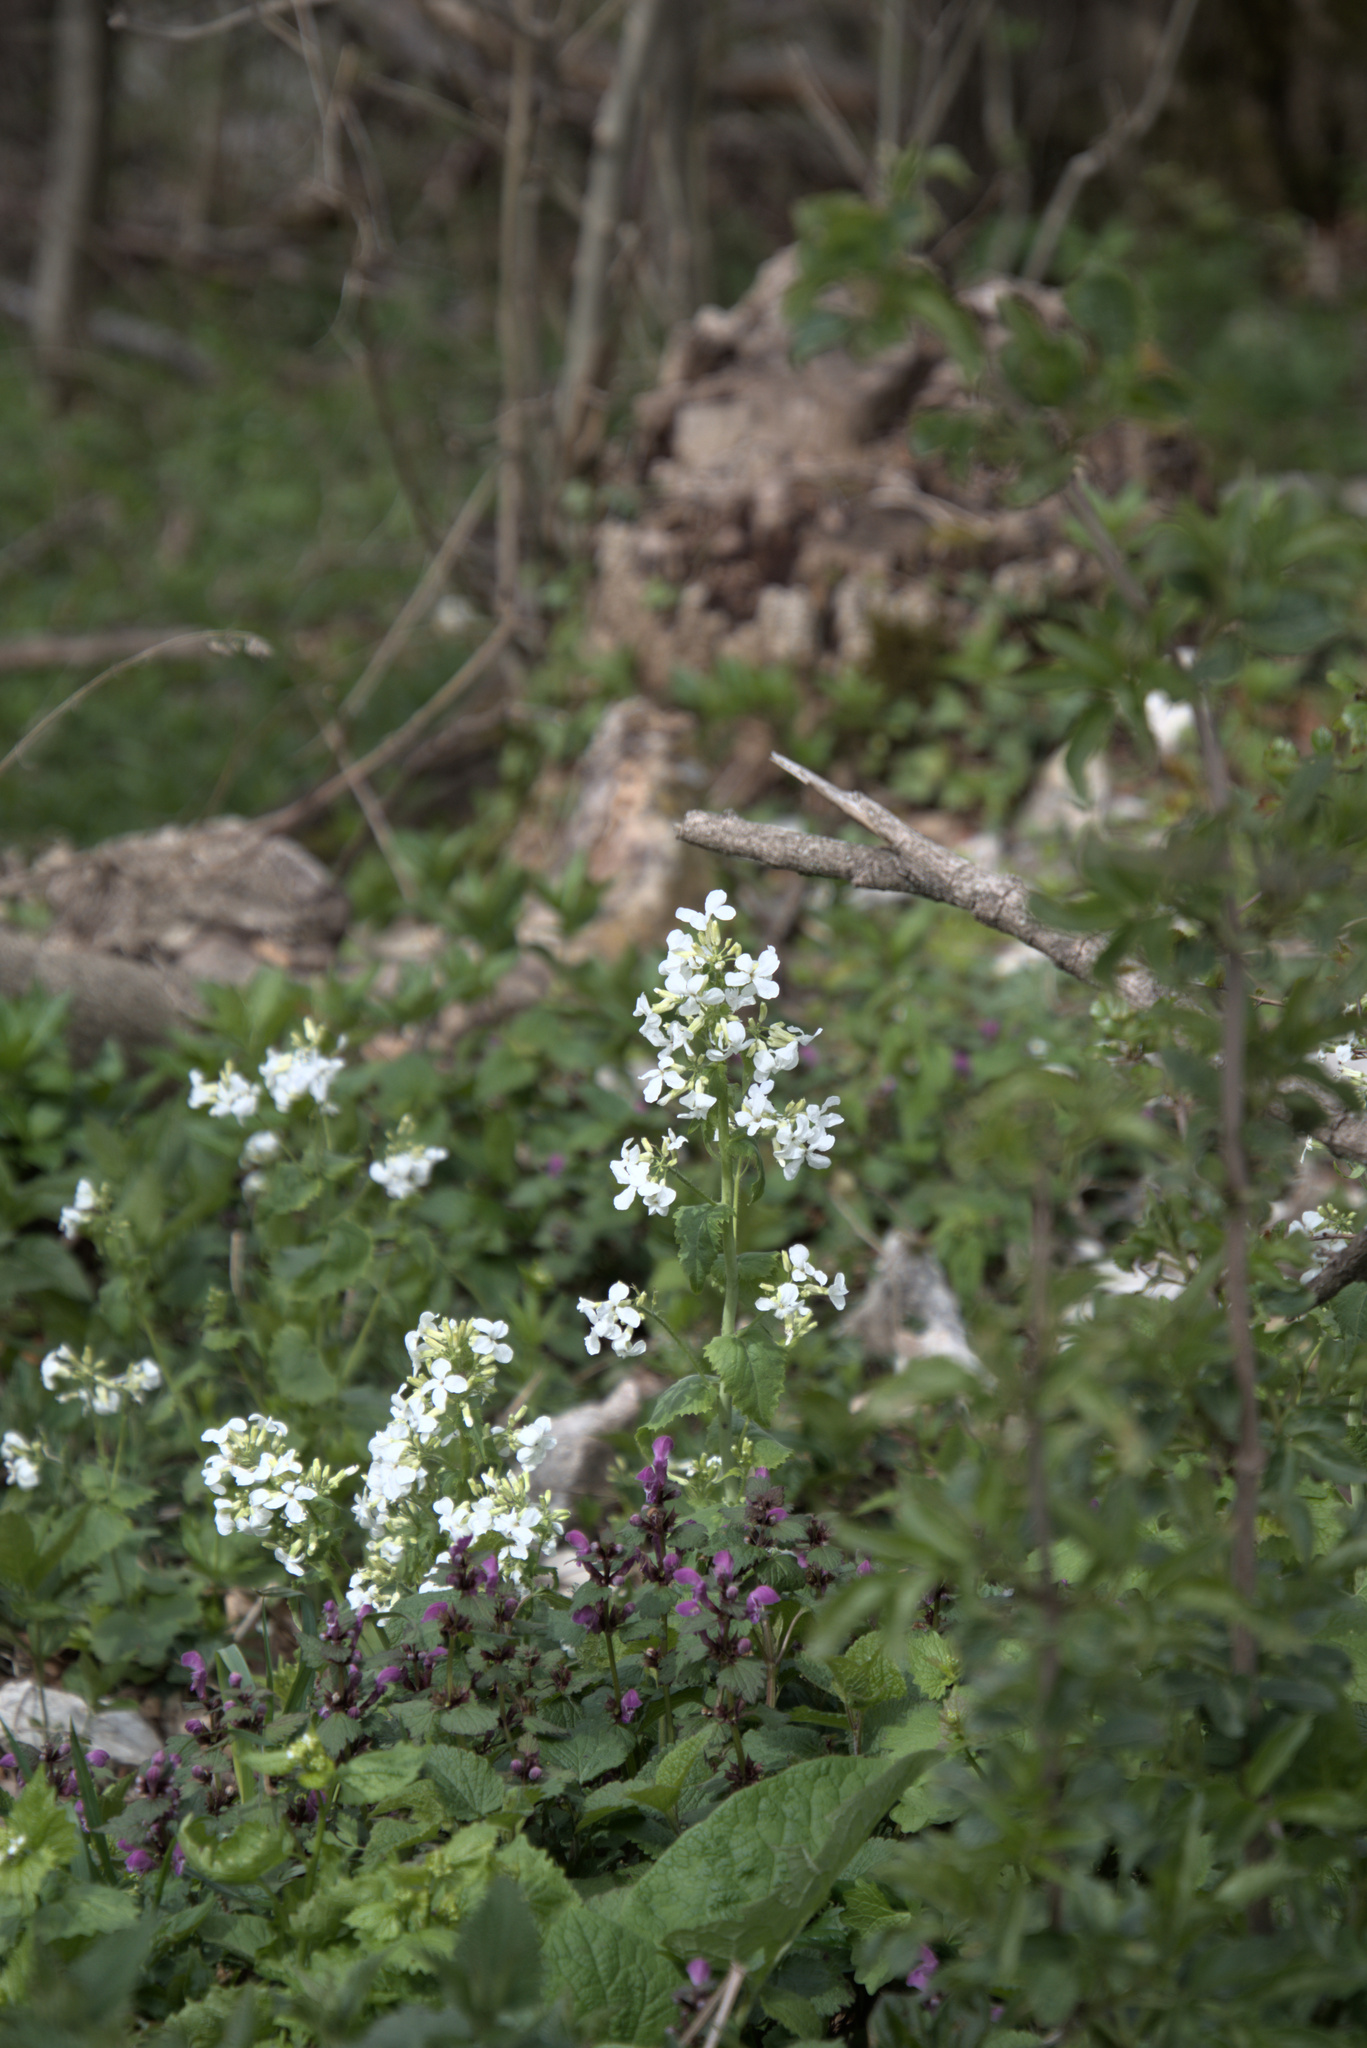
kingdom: Plantae
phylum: Tracheophyta
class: Magnoliopsida
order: Brassicales
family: Brassicaceae
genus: Lunaria
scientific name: Lunaria annua
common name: Honesty
